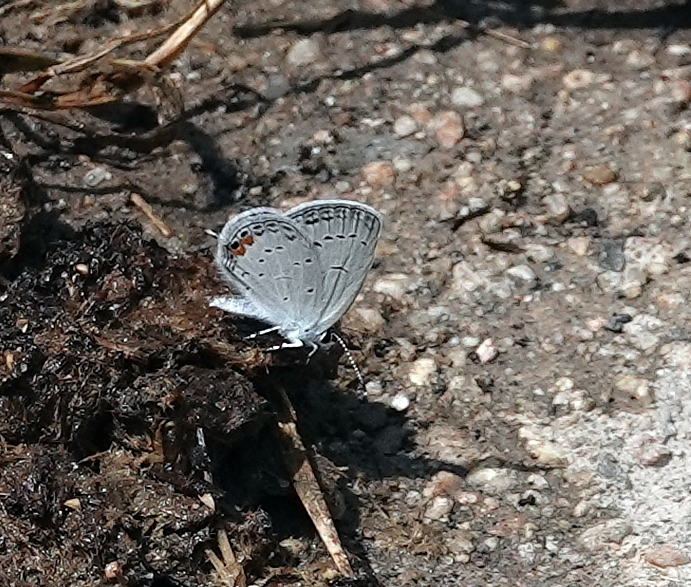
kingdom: Animalia
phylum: Arthropoda
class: Insecta
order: Lepidoptera
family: Lycaenidae
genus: Elkalyce
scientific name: Elkalyce comyntas
